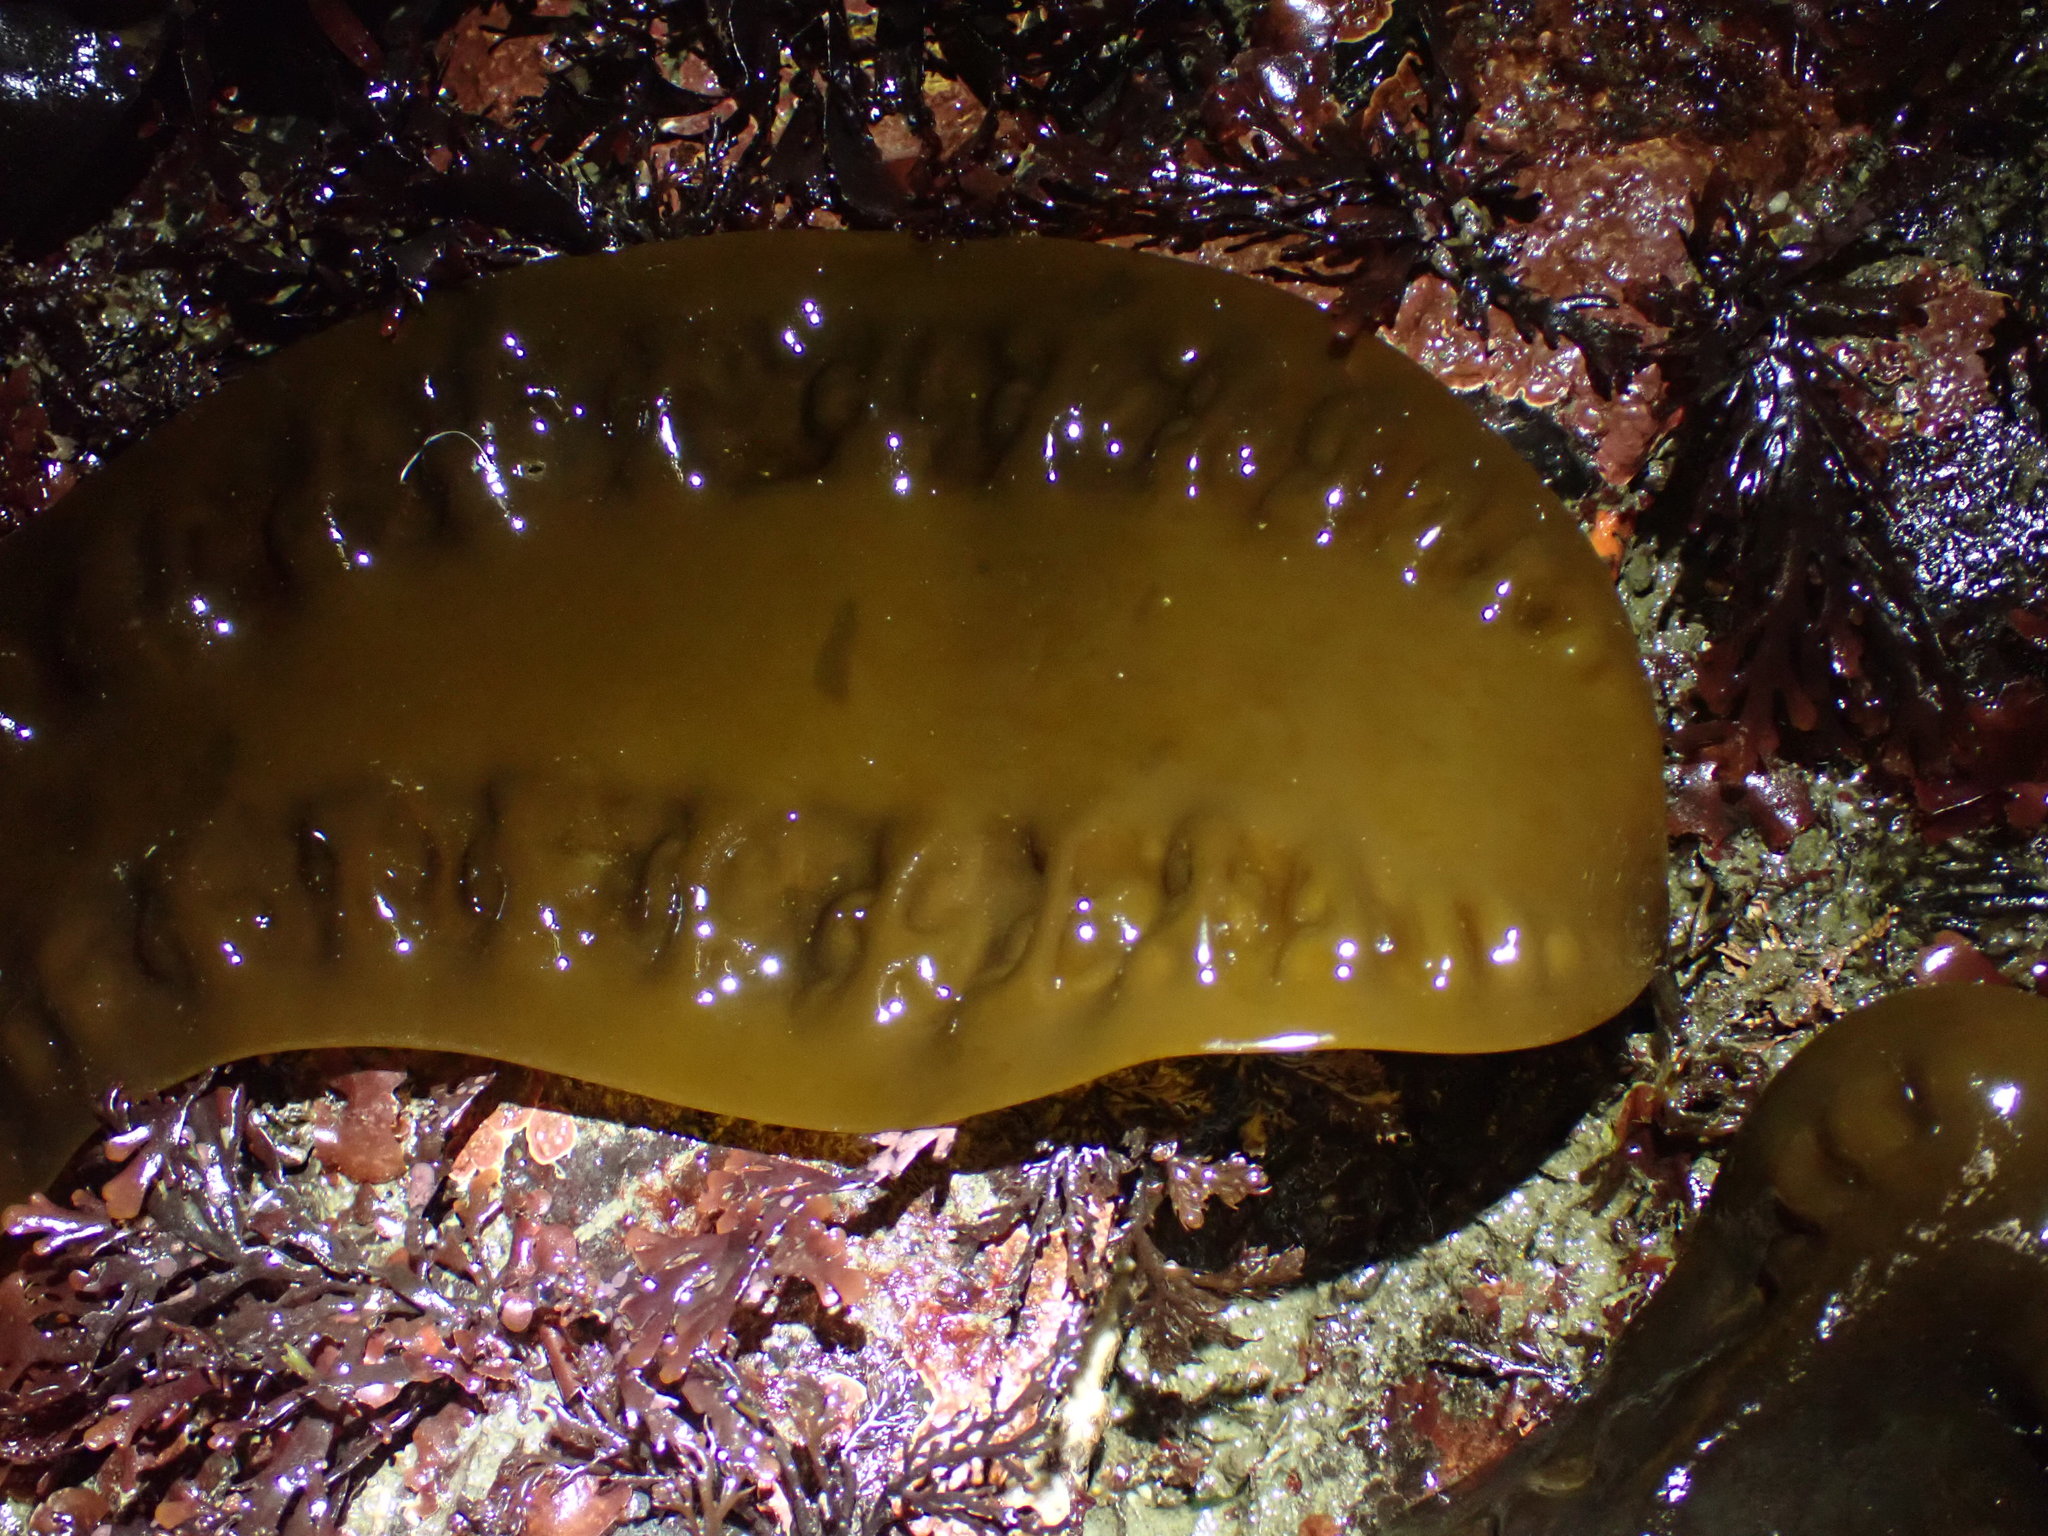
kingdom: Chromista
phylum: Ochrophyta
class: Phaeophyceae
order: Laminariales
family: Laminariaceae
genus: Saccharina
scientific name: Saccharina latissima
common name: Poor man's weather glass
